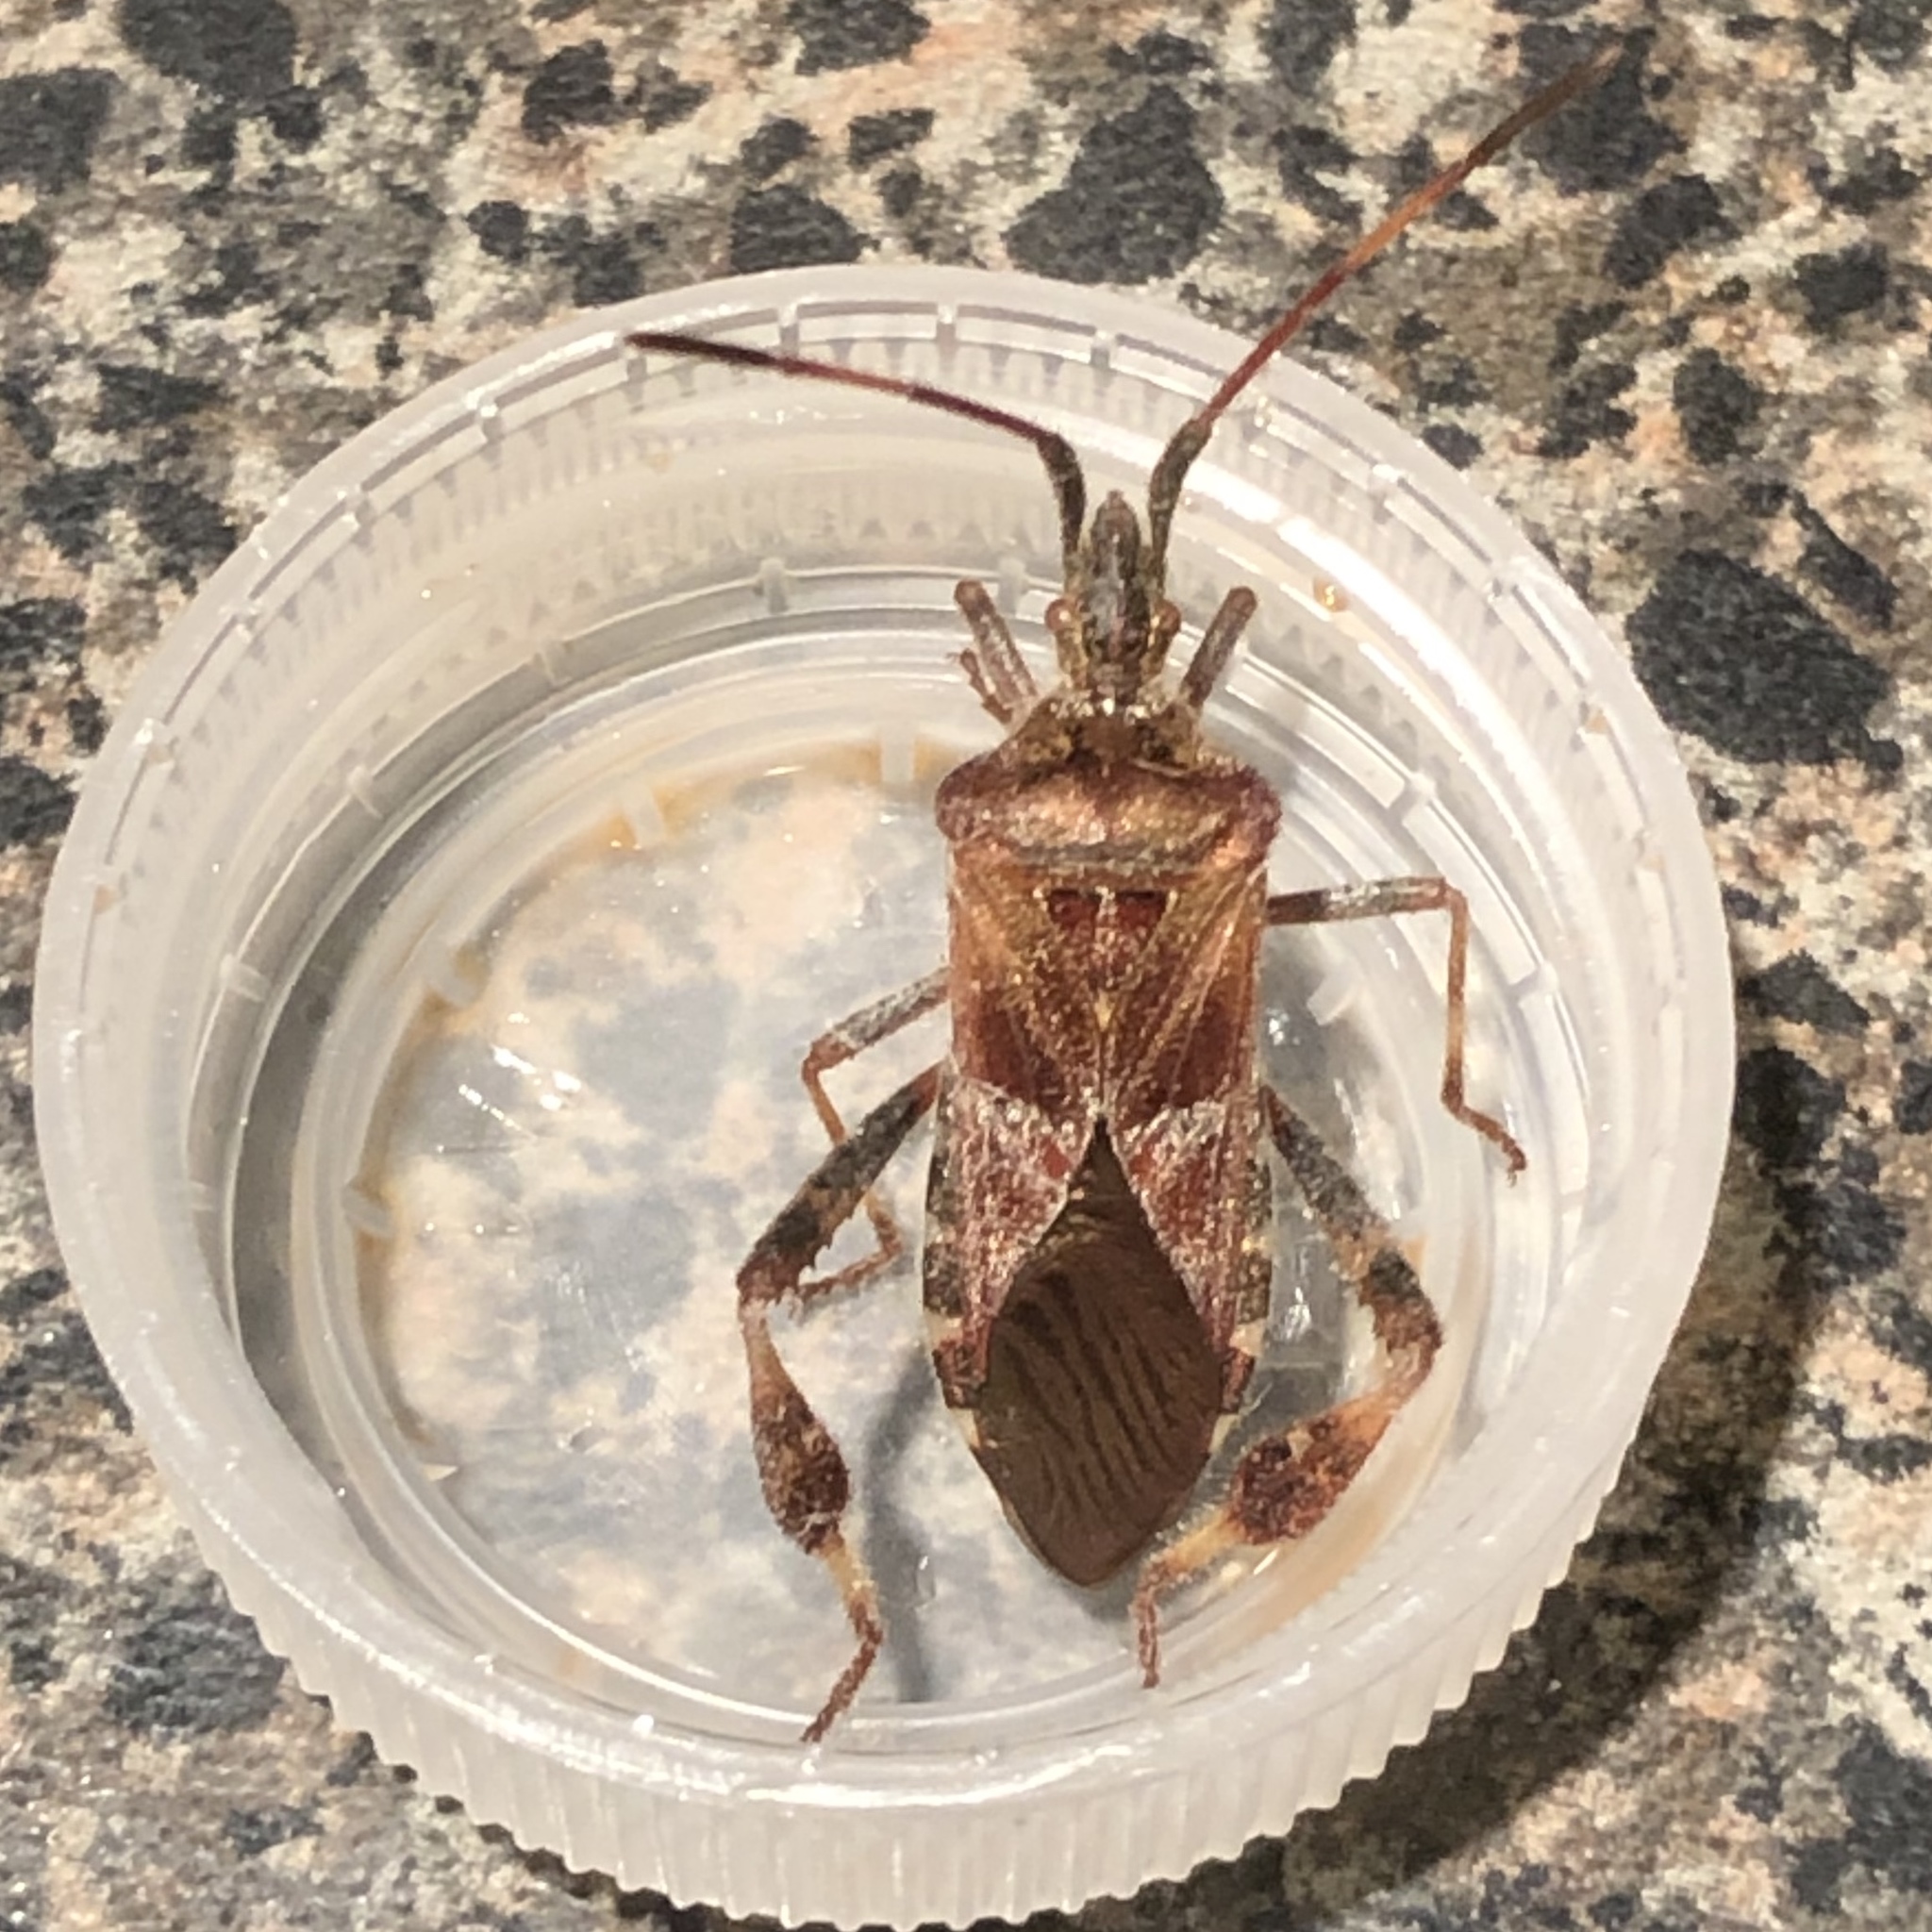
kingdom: Animalia
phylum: Arthropoda
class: Insecta
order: Hemiptera
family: Coreidae
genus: Leptoglossus
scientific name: Leptoglossus occidentalis
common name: Western conifer-seed bug
